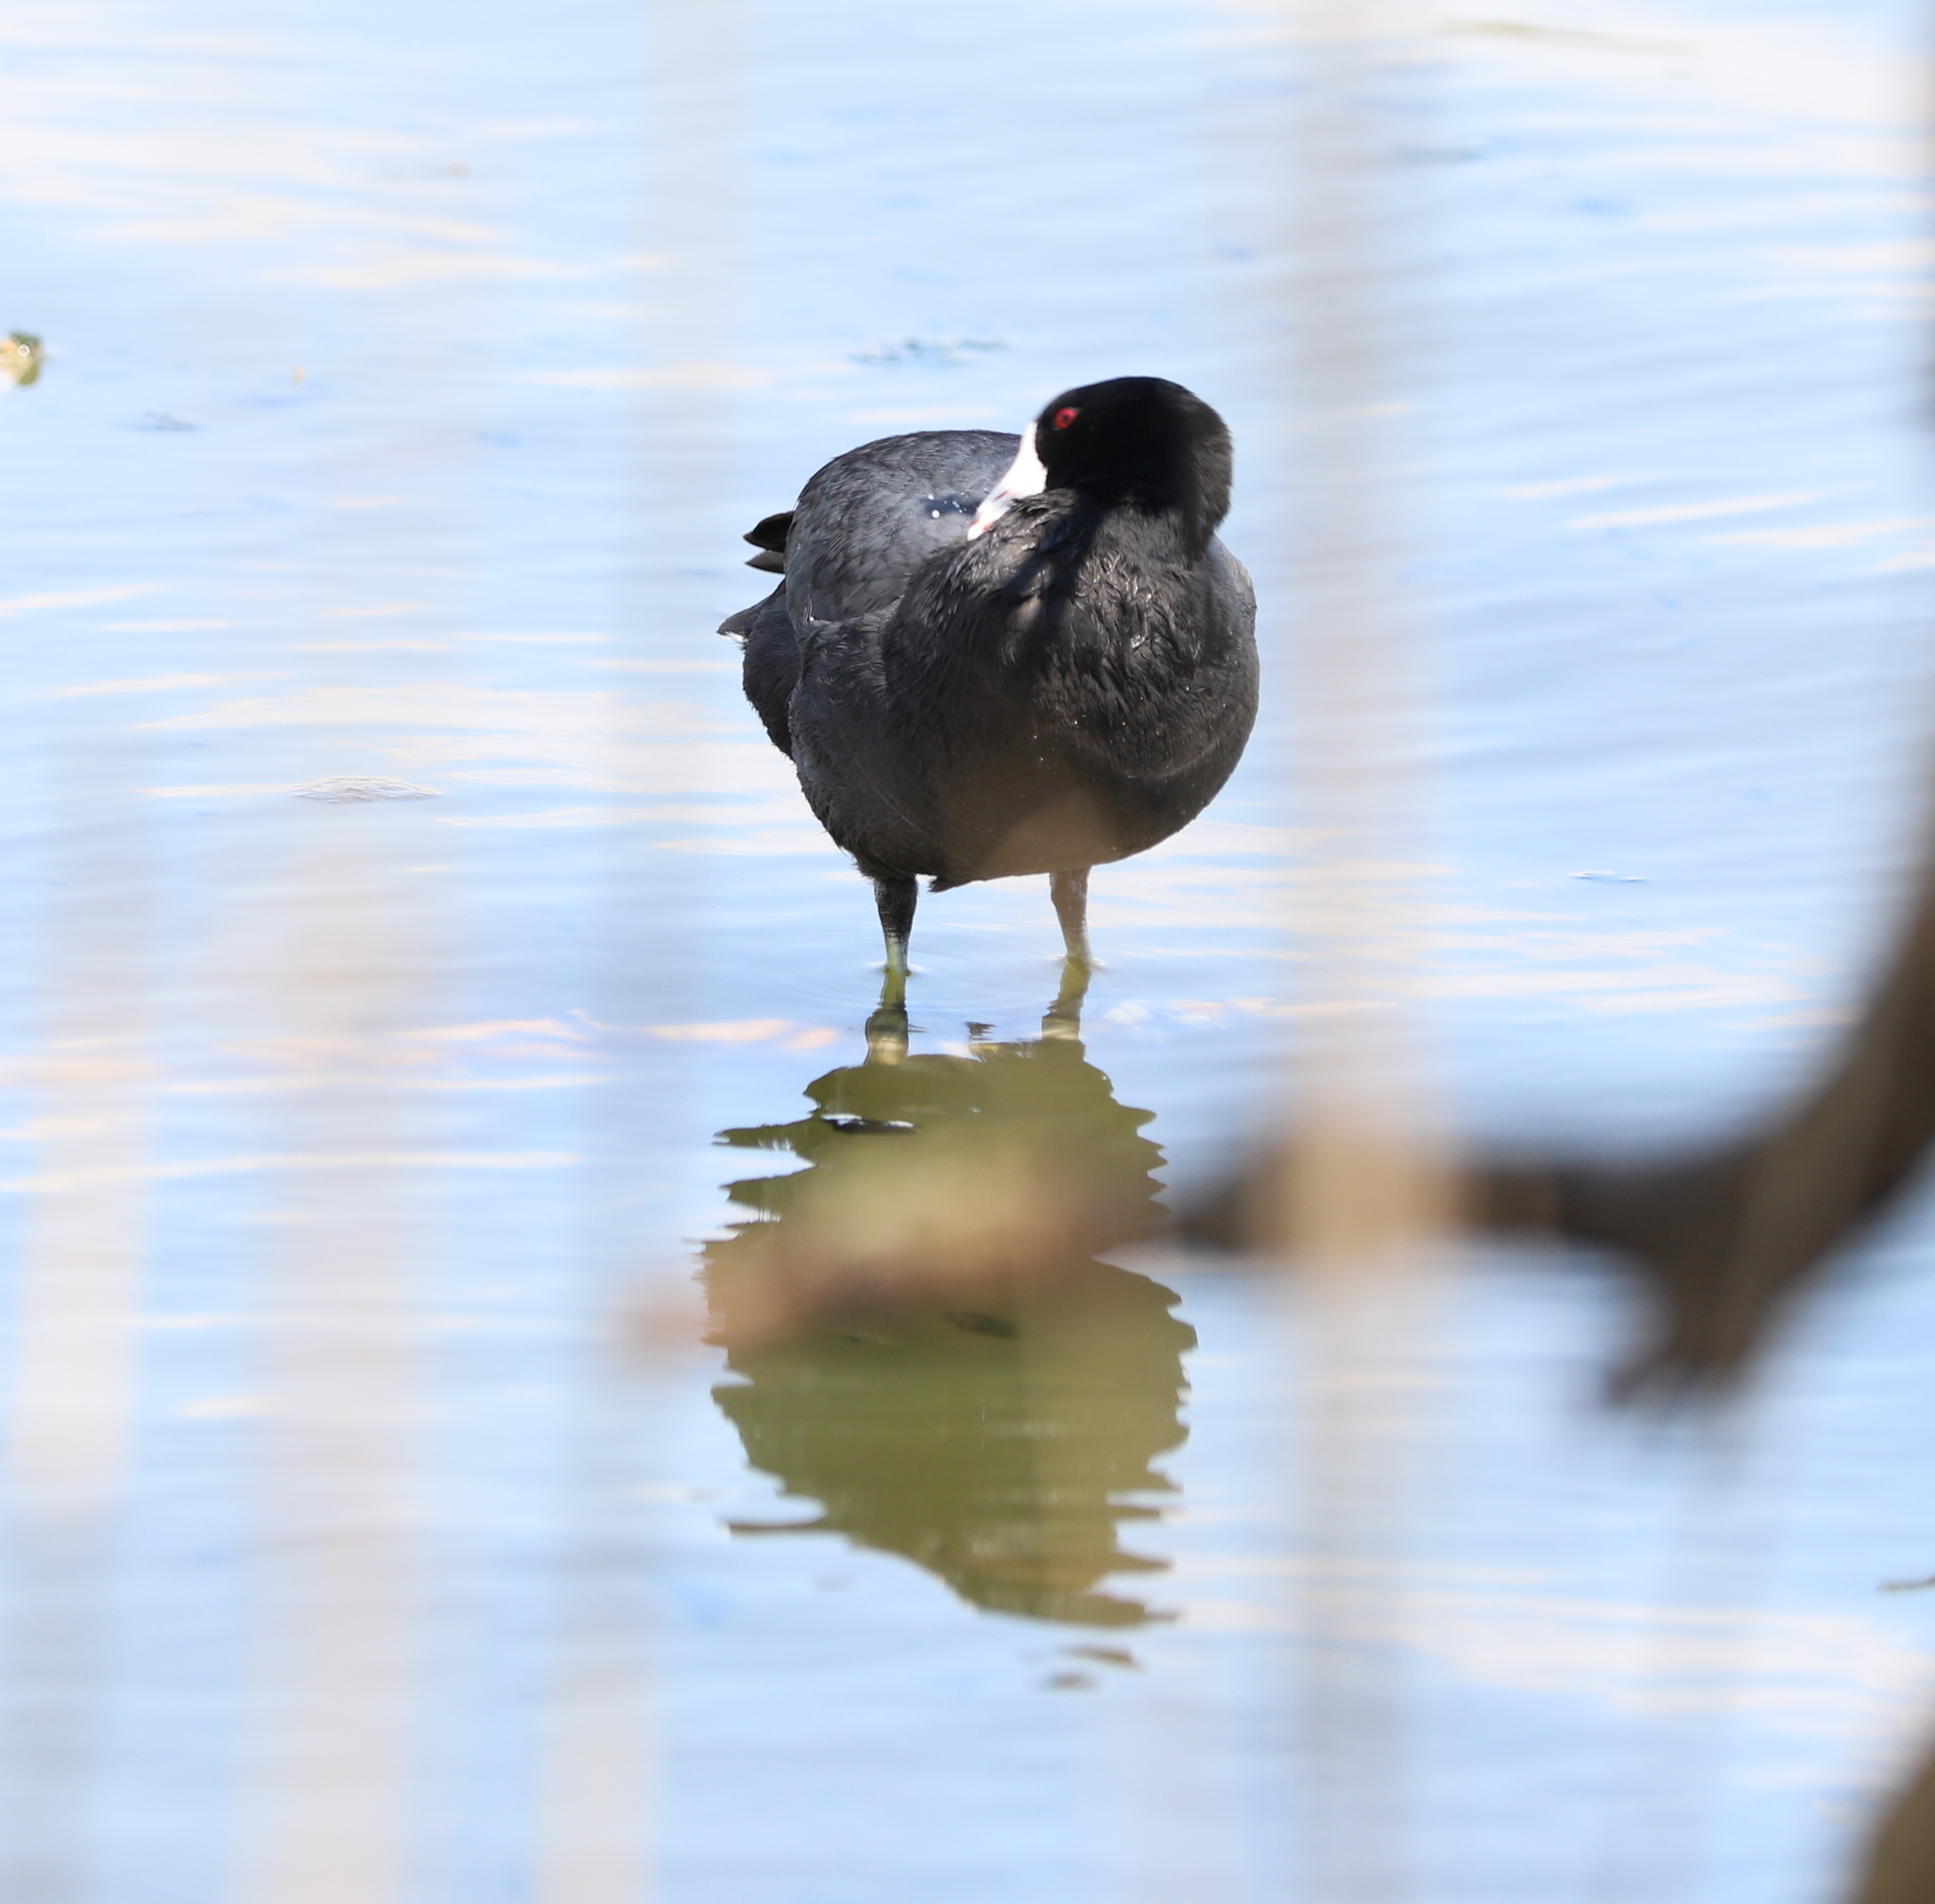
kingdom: Animalia
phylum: Chordata
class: Aves
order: Gruiformes
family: Rallidae
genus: Fulica
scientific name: Fulica americana
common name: American coot
